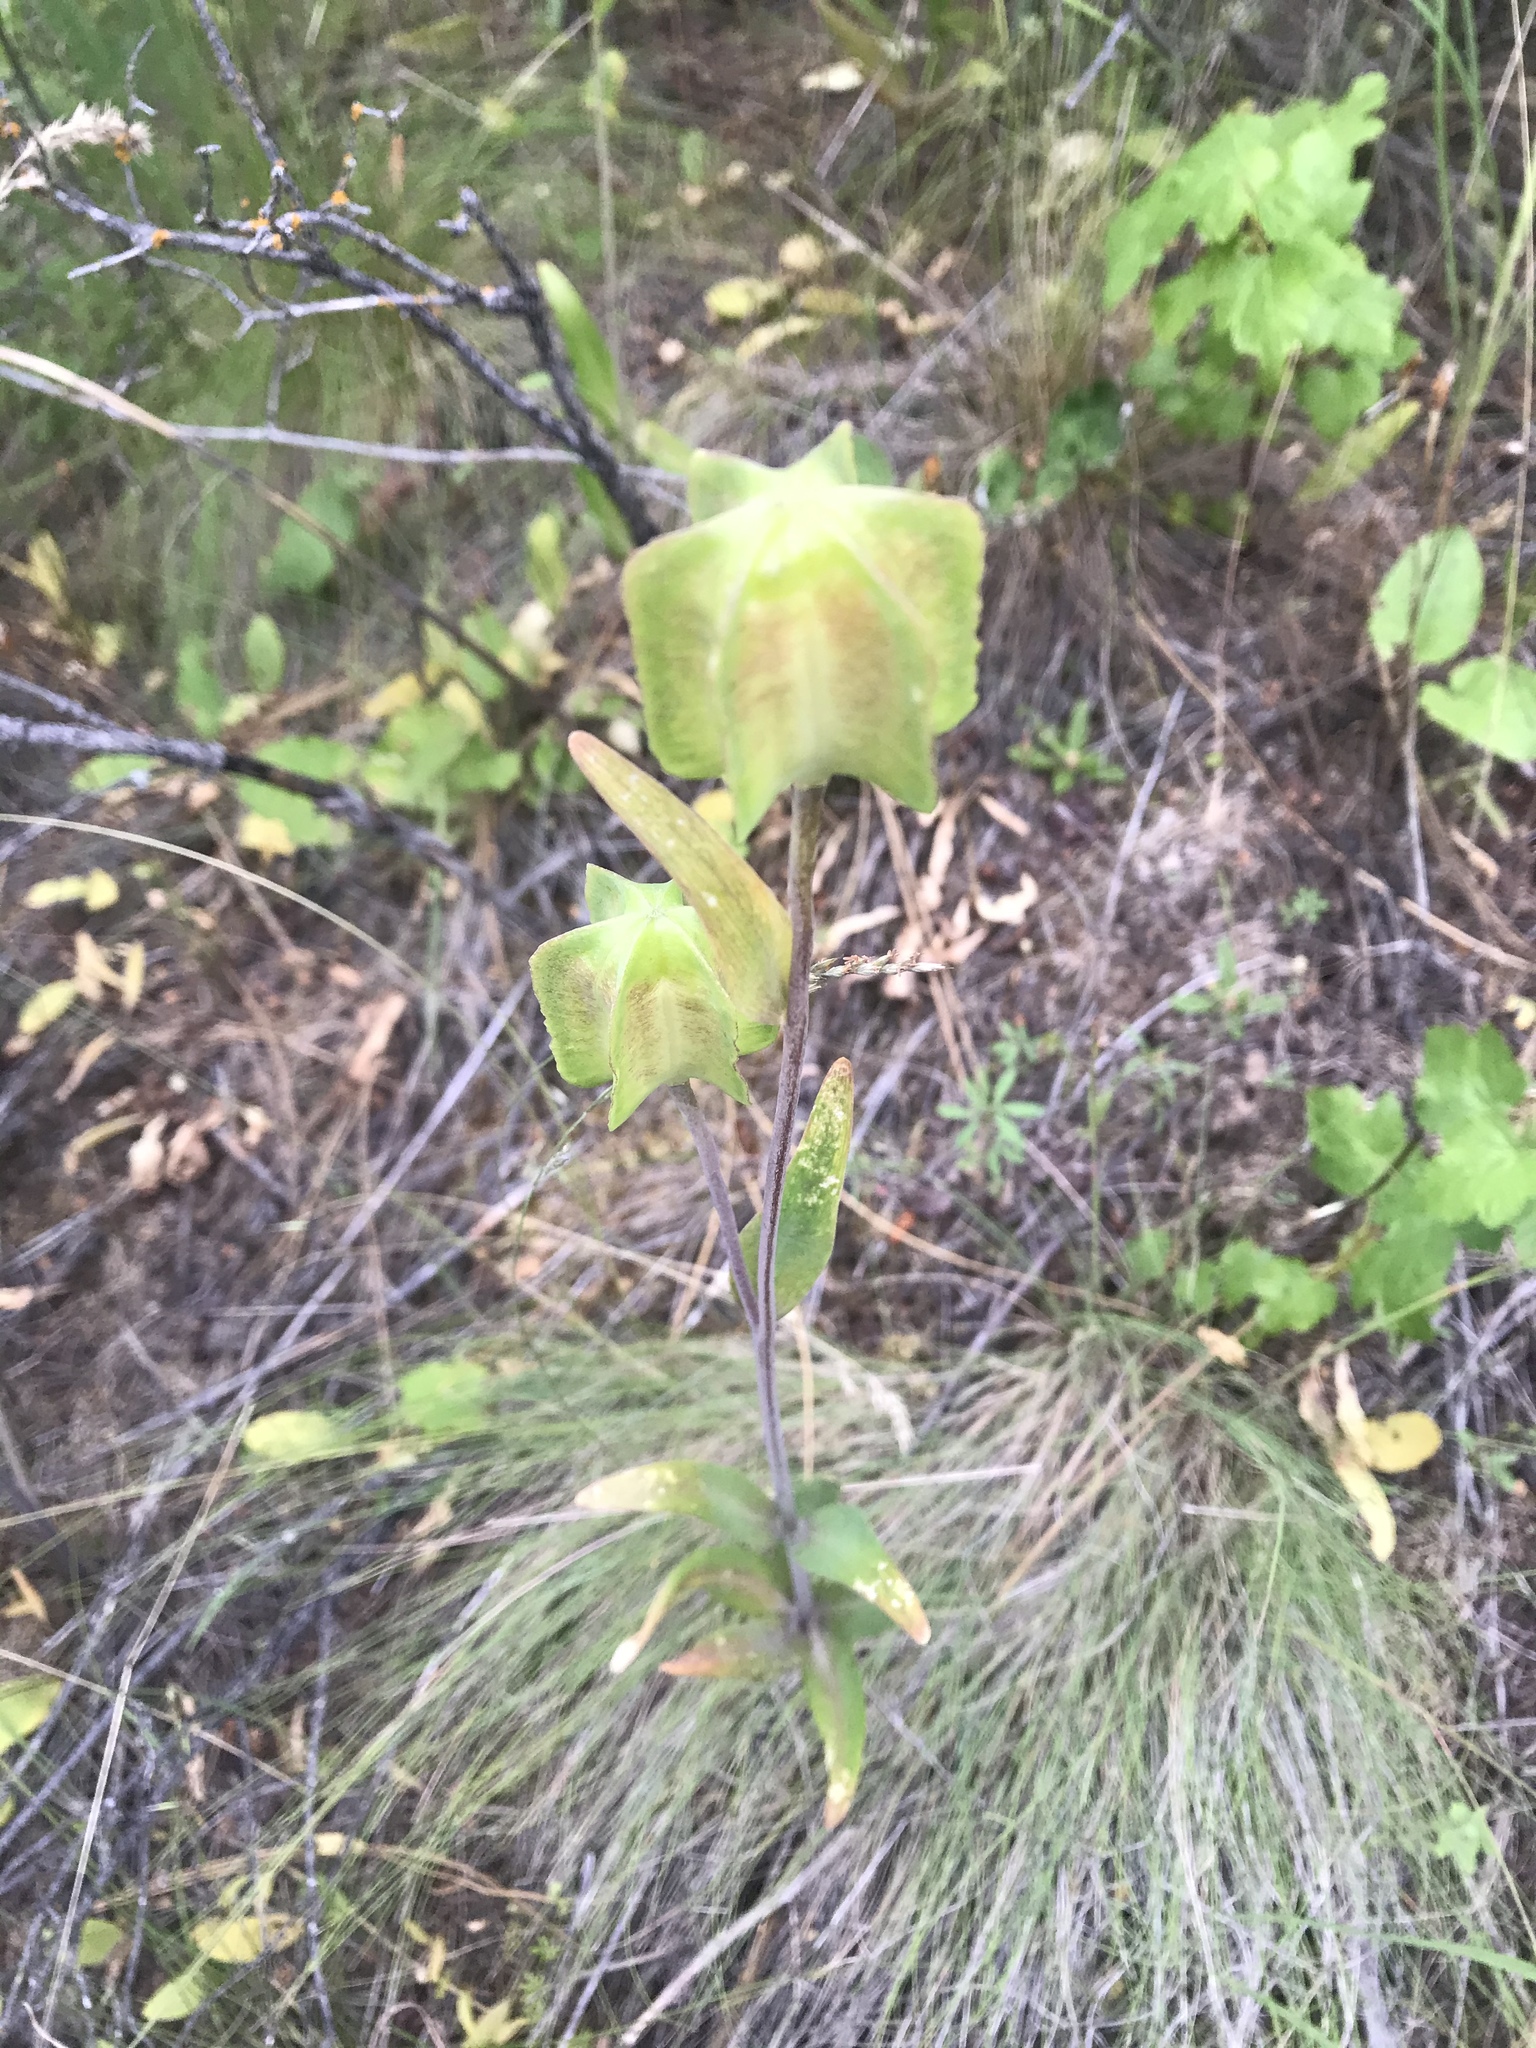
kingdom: Plantae
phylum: Tracheophyta
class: Liliopsida
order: Liliales
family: Liliaceae
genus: Fritillaria
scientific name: Fritillaria affinis
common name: Ojai fritillary
